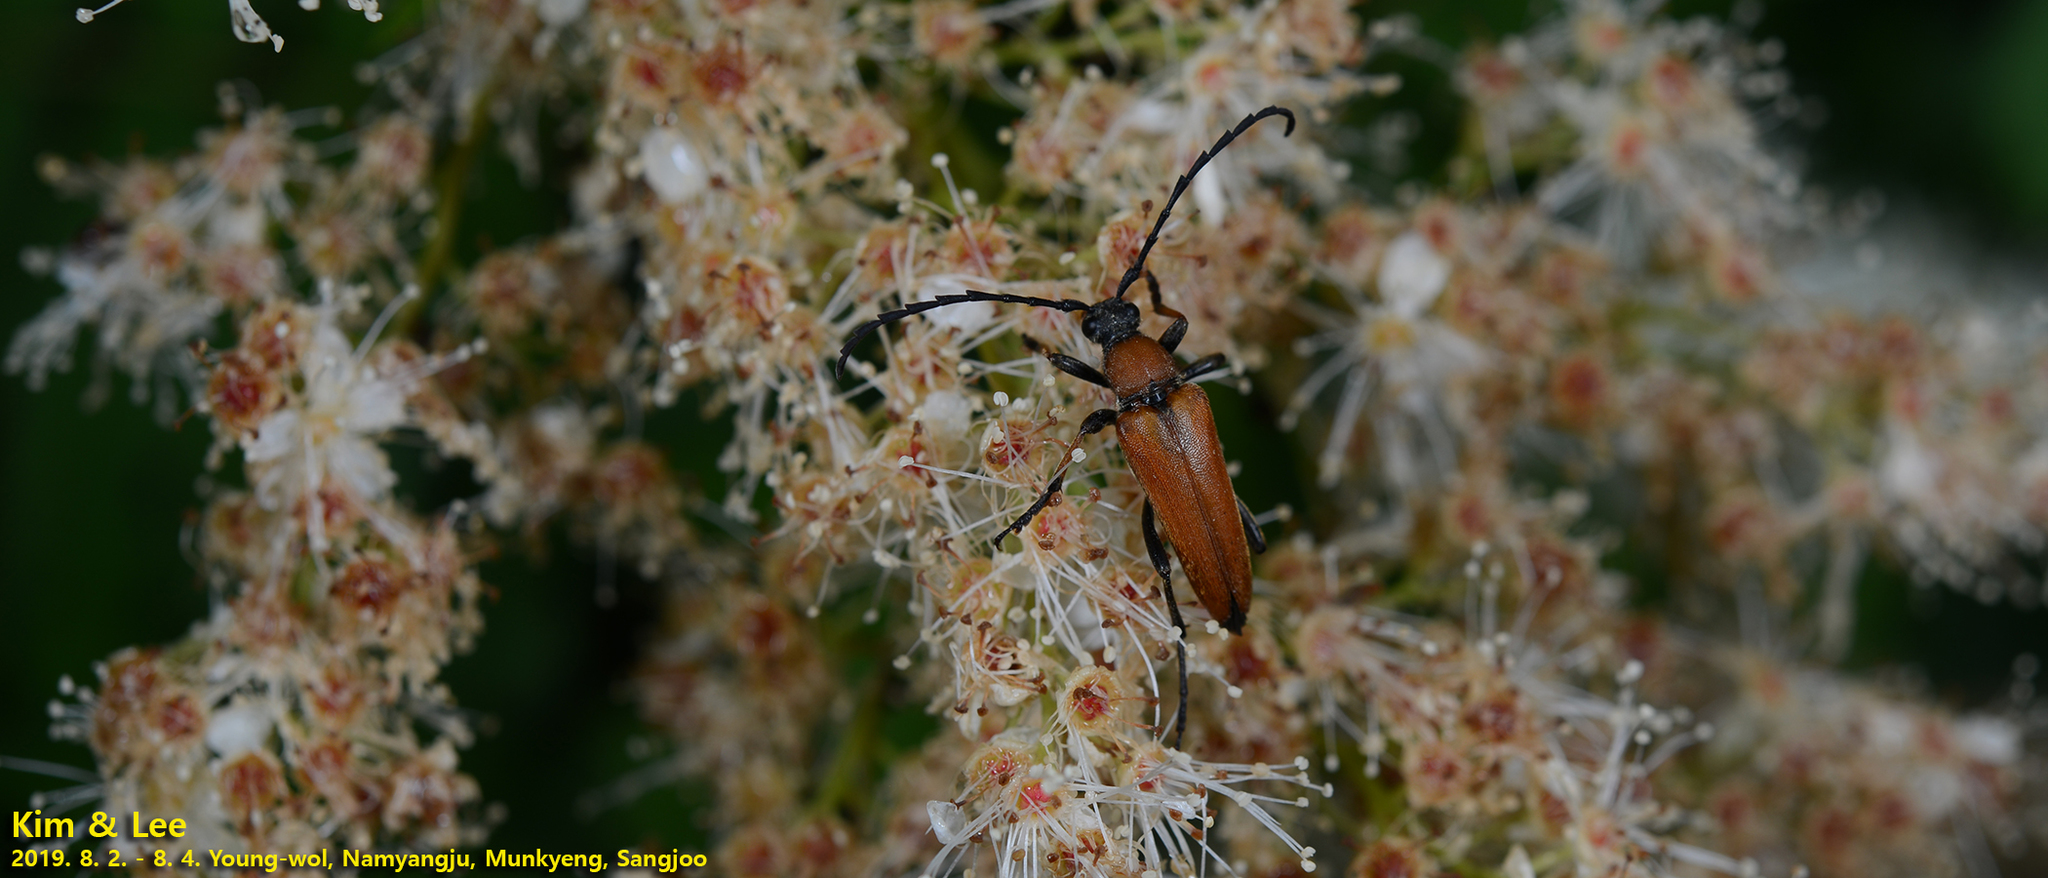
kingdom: Animalia
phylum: Arthropoda
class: Insecta
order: Coleoptera
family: Cerambycidae
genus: Stictoleptura
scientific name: Stictoleptura dichroa
